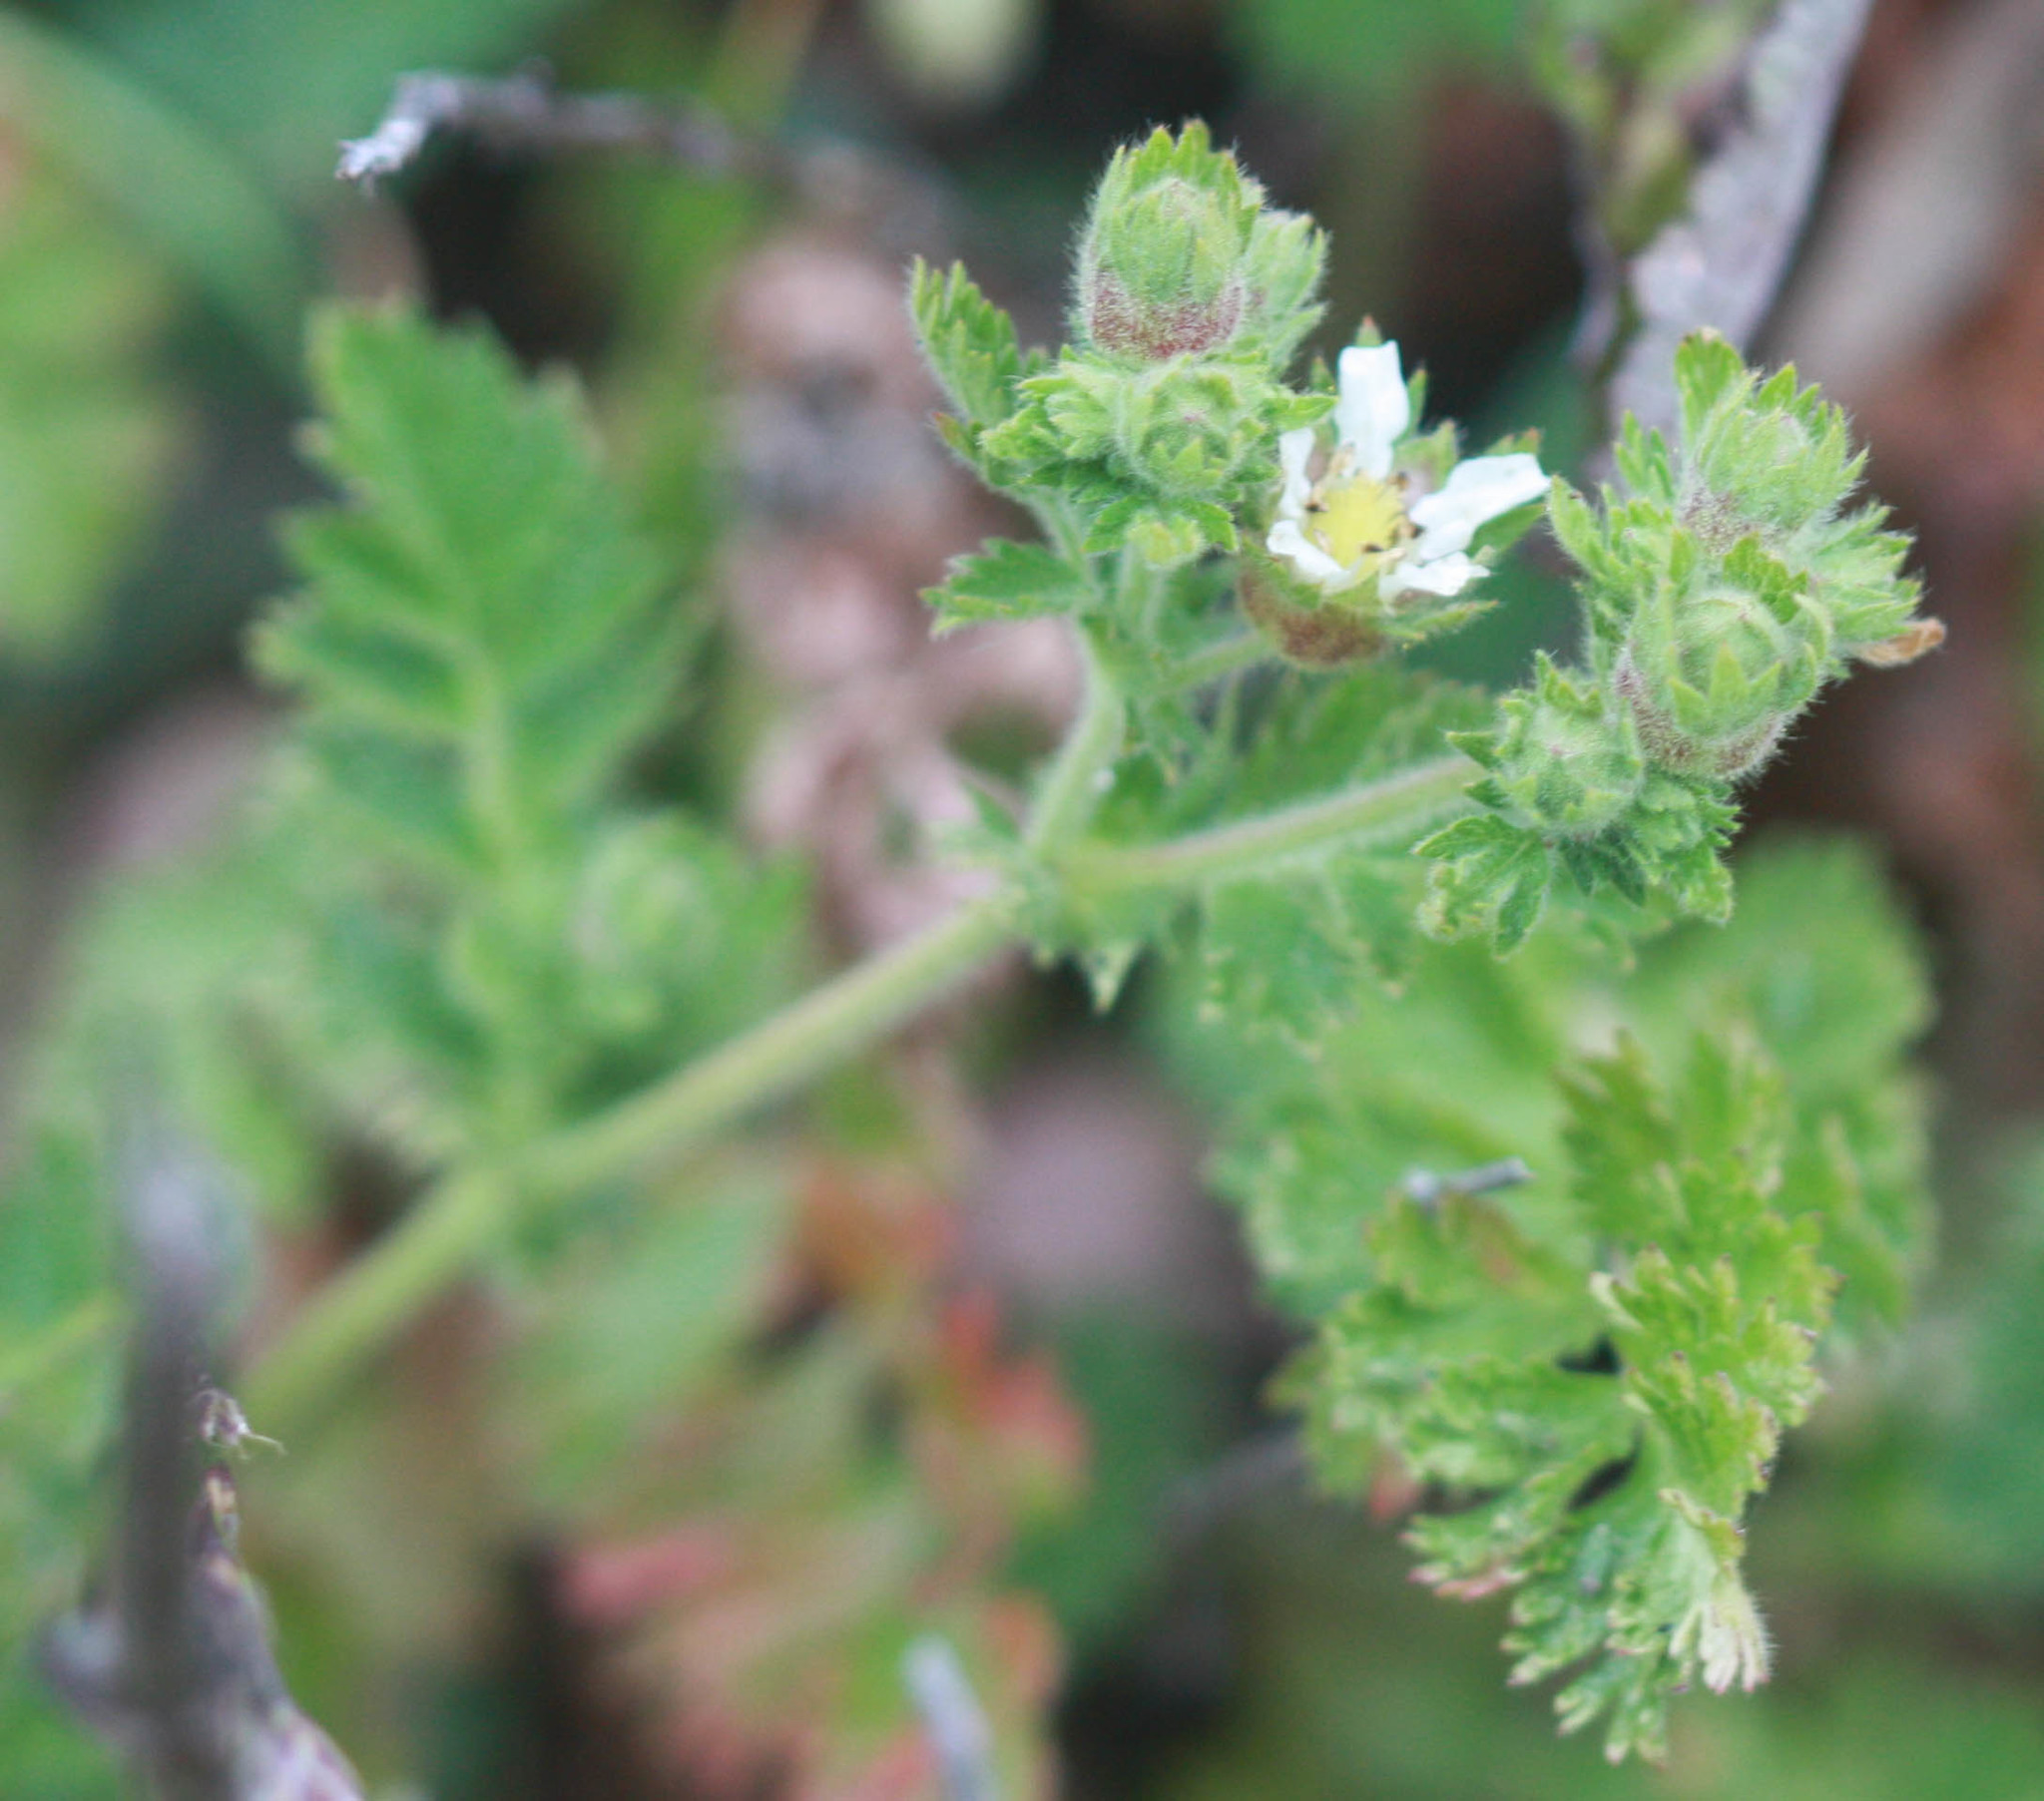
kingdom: Plantae
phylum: Tracheophyta
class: Magnoliopsida
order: Rosales
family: Rosaceae
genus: Potentilla
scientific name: Potentilla californica
